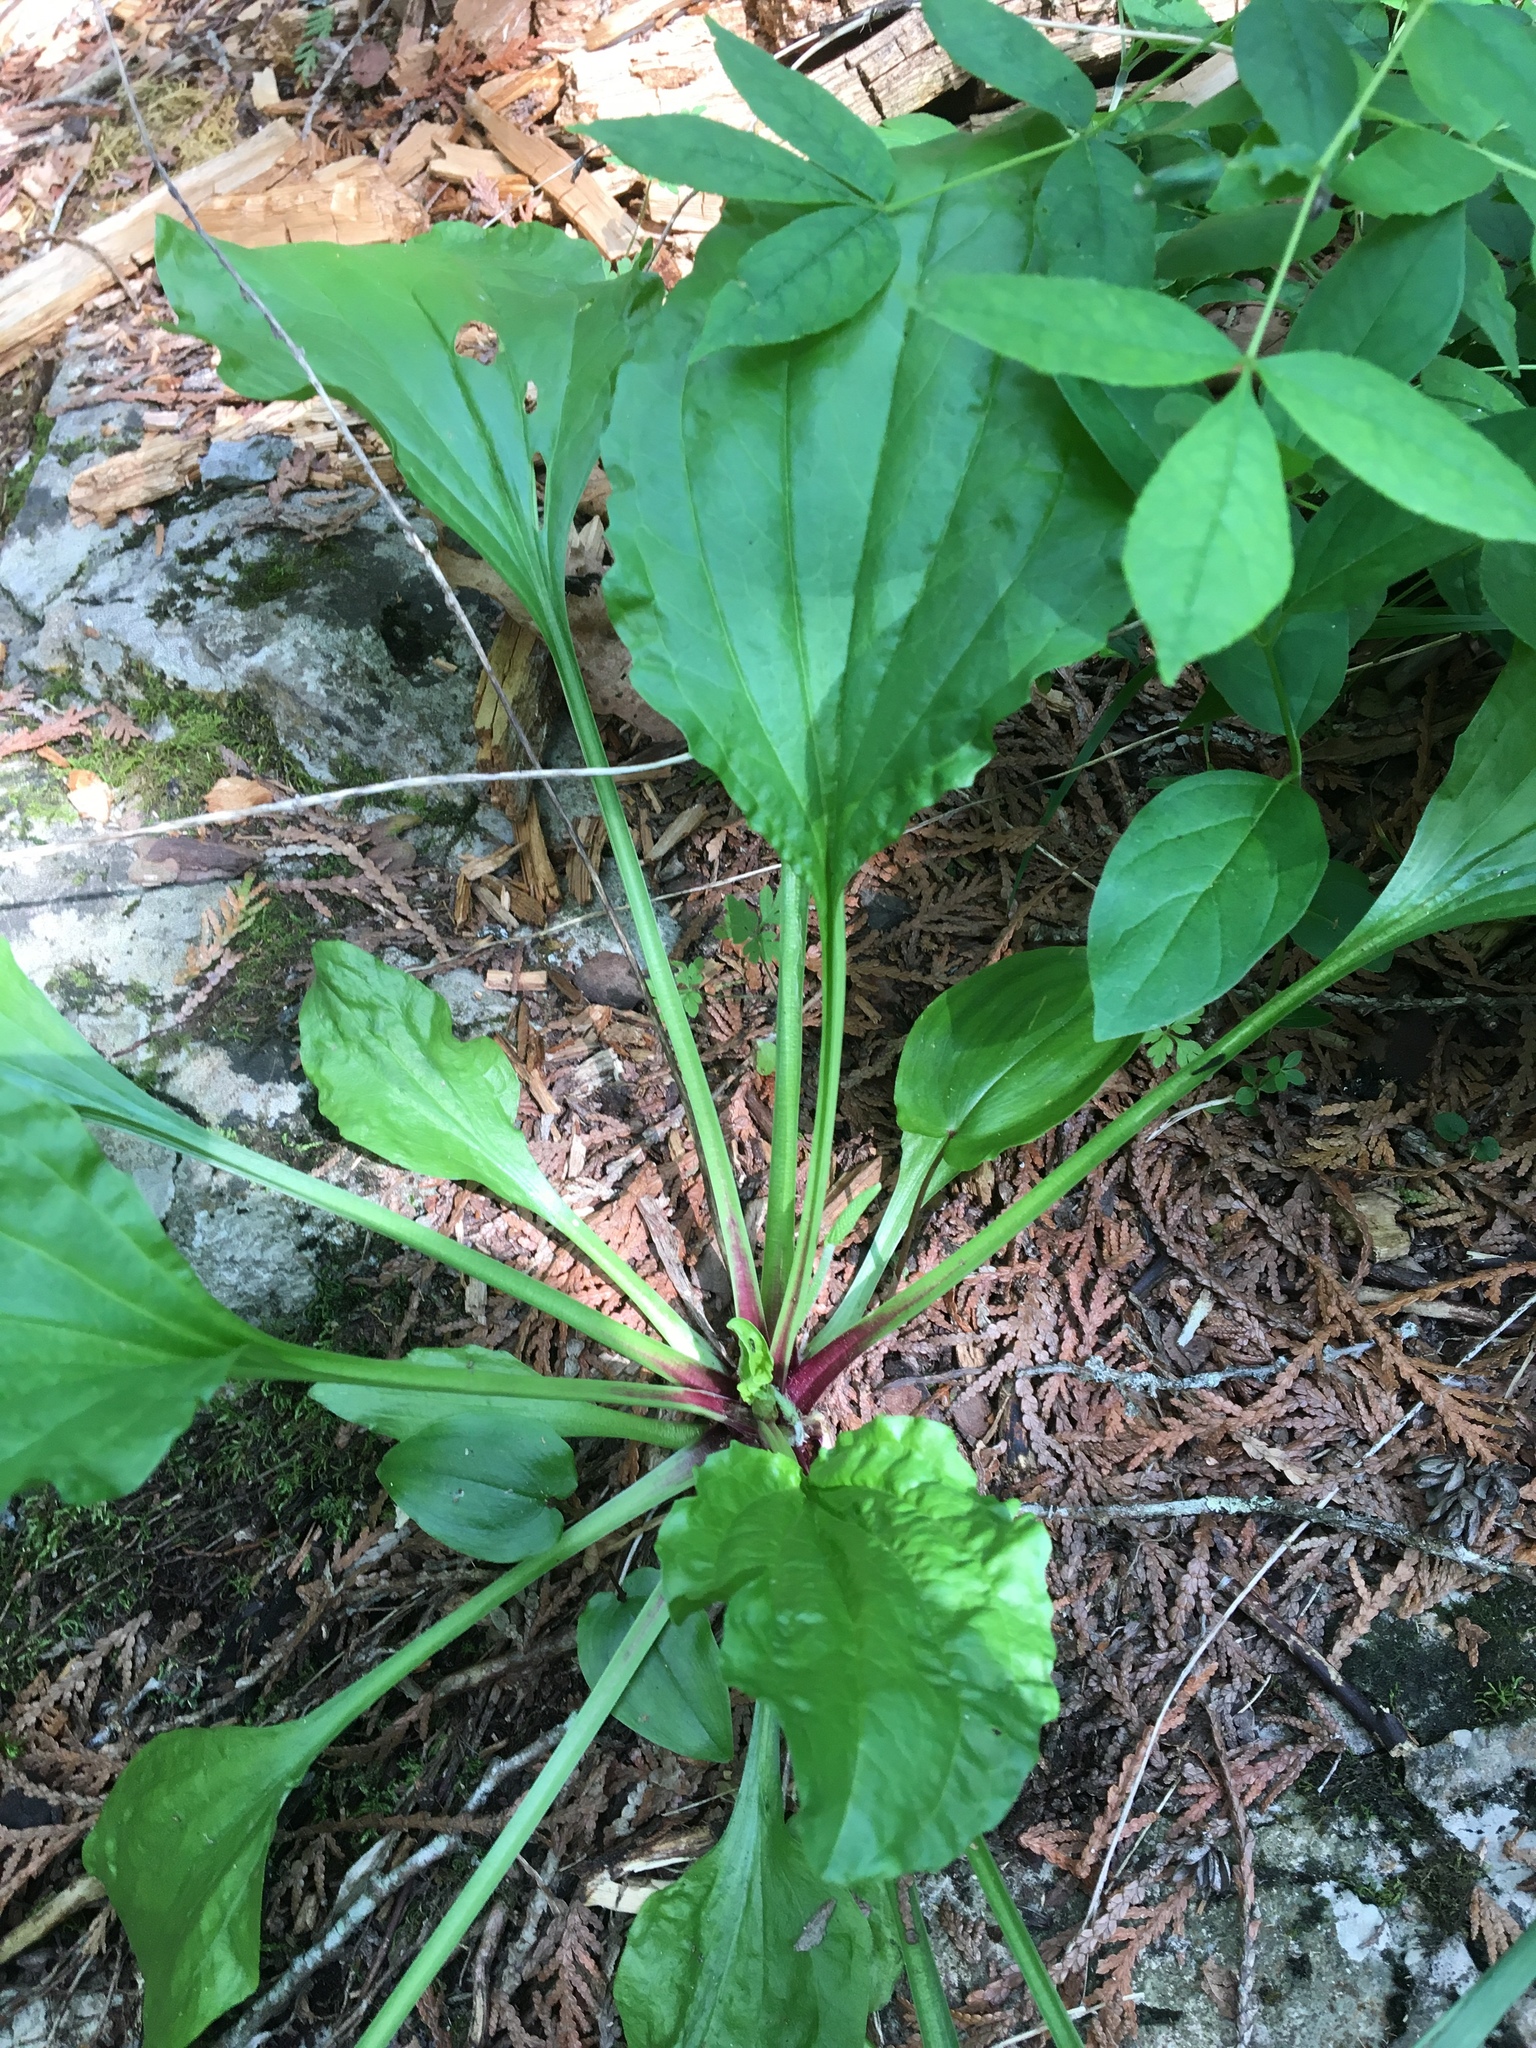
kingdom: Plantae
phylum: Tracheophyta
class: Magnoliopsida
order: Lamiales
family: Plantaginaceae
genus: Plantago
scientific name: Plantago rugelii
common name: American plantain
